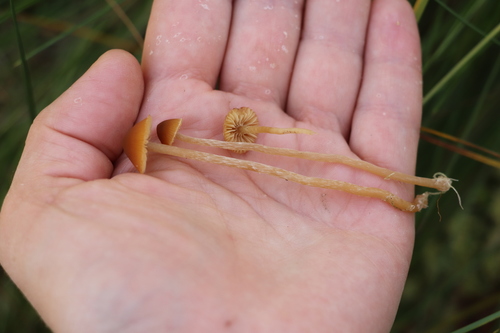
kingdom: Fungi
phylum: Basidiomycota
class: Agaricomycetes
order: Agaricales
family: Hymenogastraceae
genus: Galerina
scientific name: Galerina
